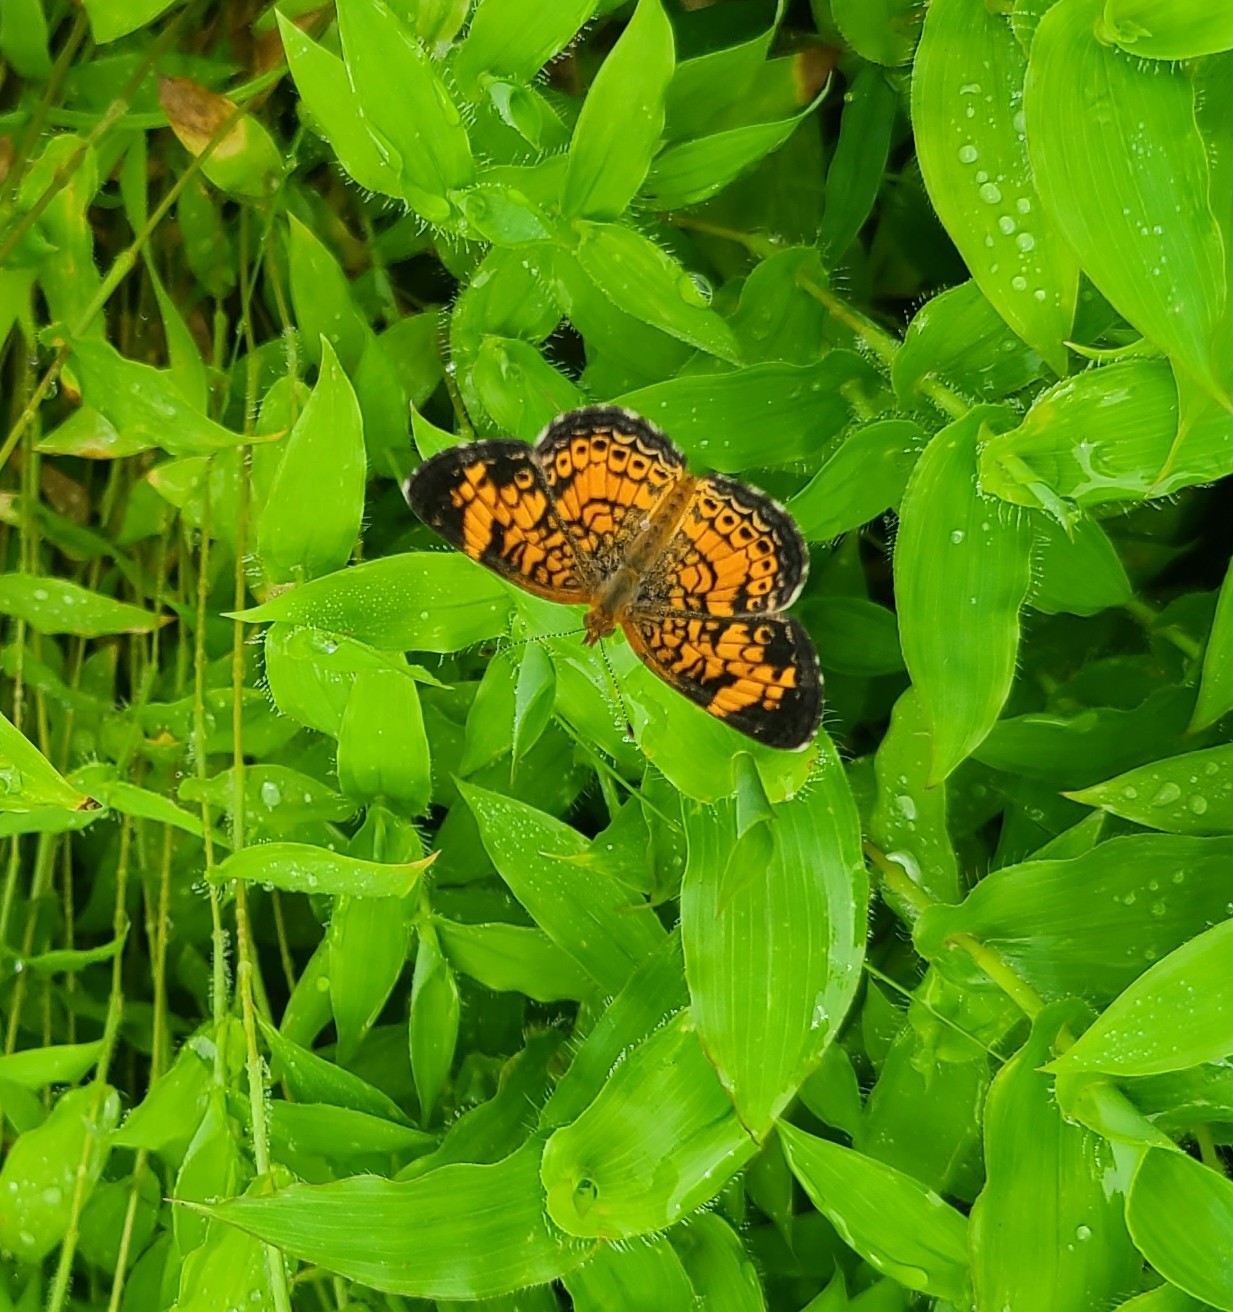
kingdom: Animalia
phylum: Arthropoda
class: Insecta
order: Lepidoptera
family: Nymphalidae
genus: Phyciodes
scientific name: Phyciodes tharos
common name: Pearl crescent
